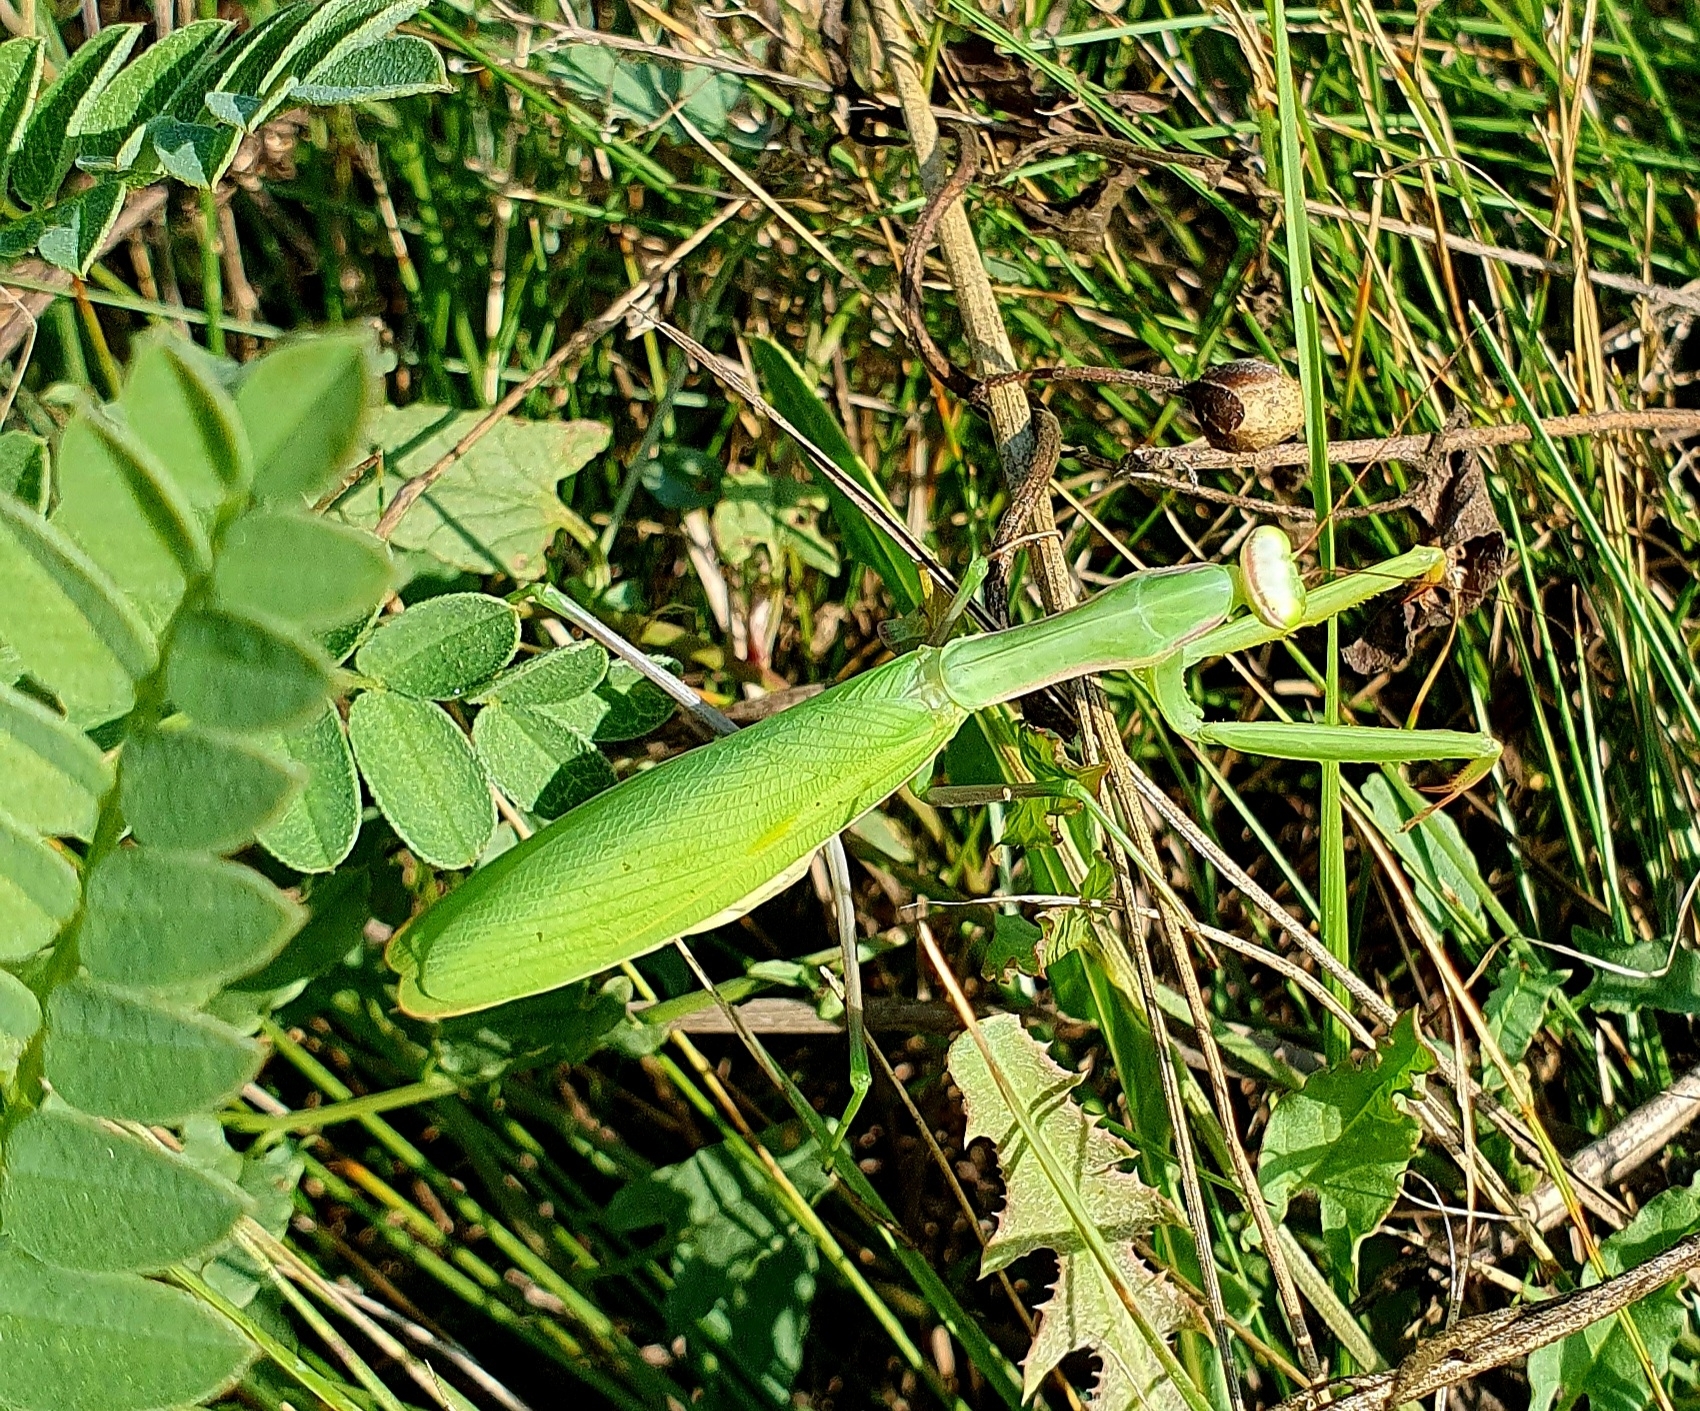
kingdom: Animalia
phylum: Arthropoda
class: Insecta
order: Mantodea
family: Mantidae
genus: Mantis
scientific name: Mantis religiosa
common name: Praying mantis
